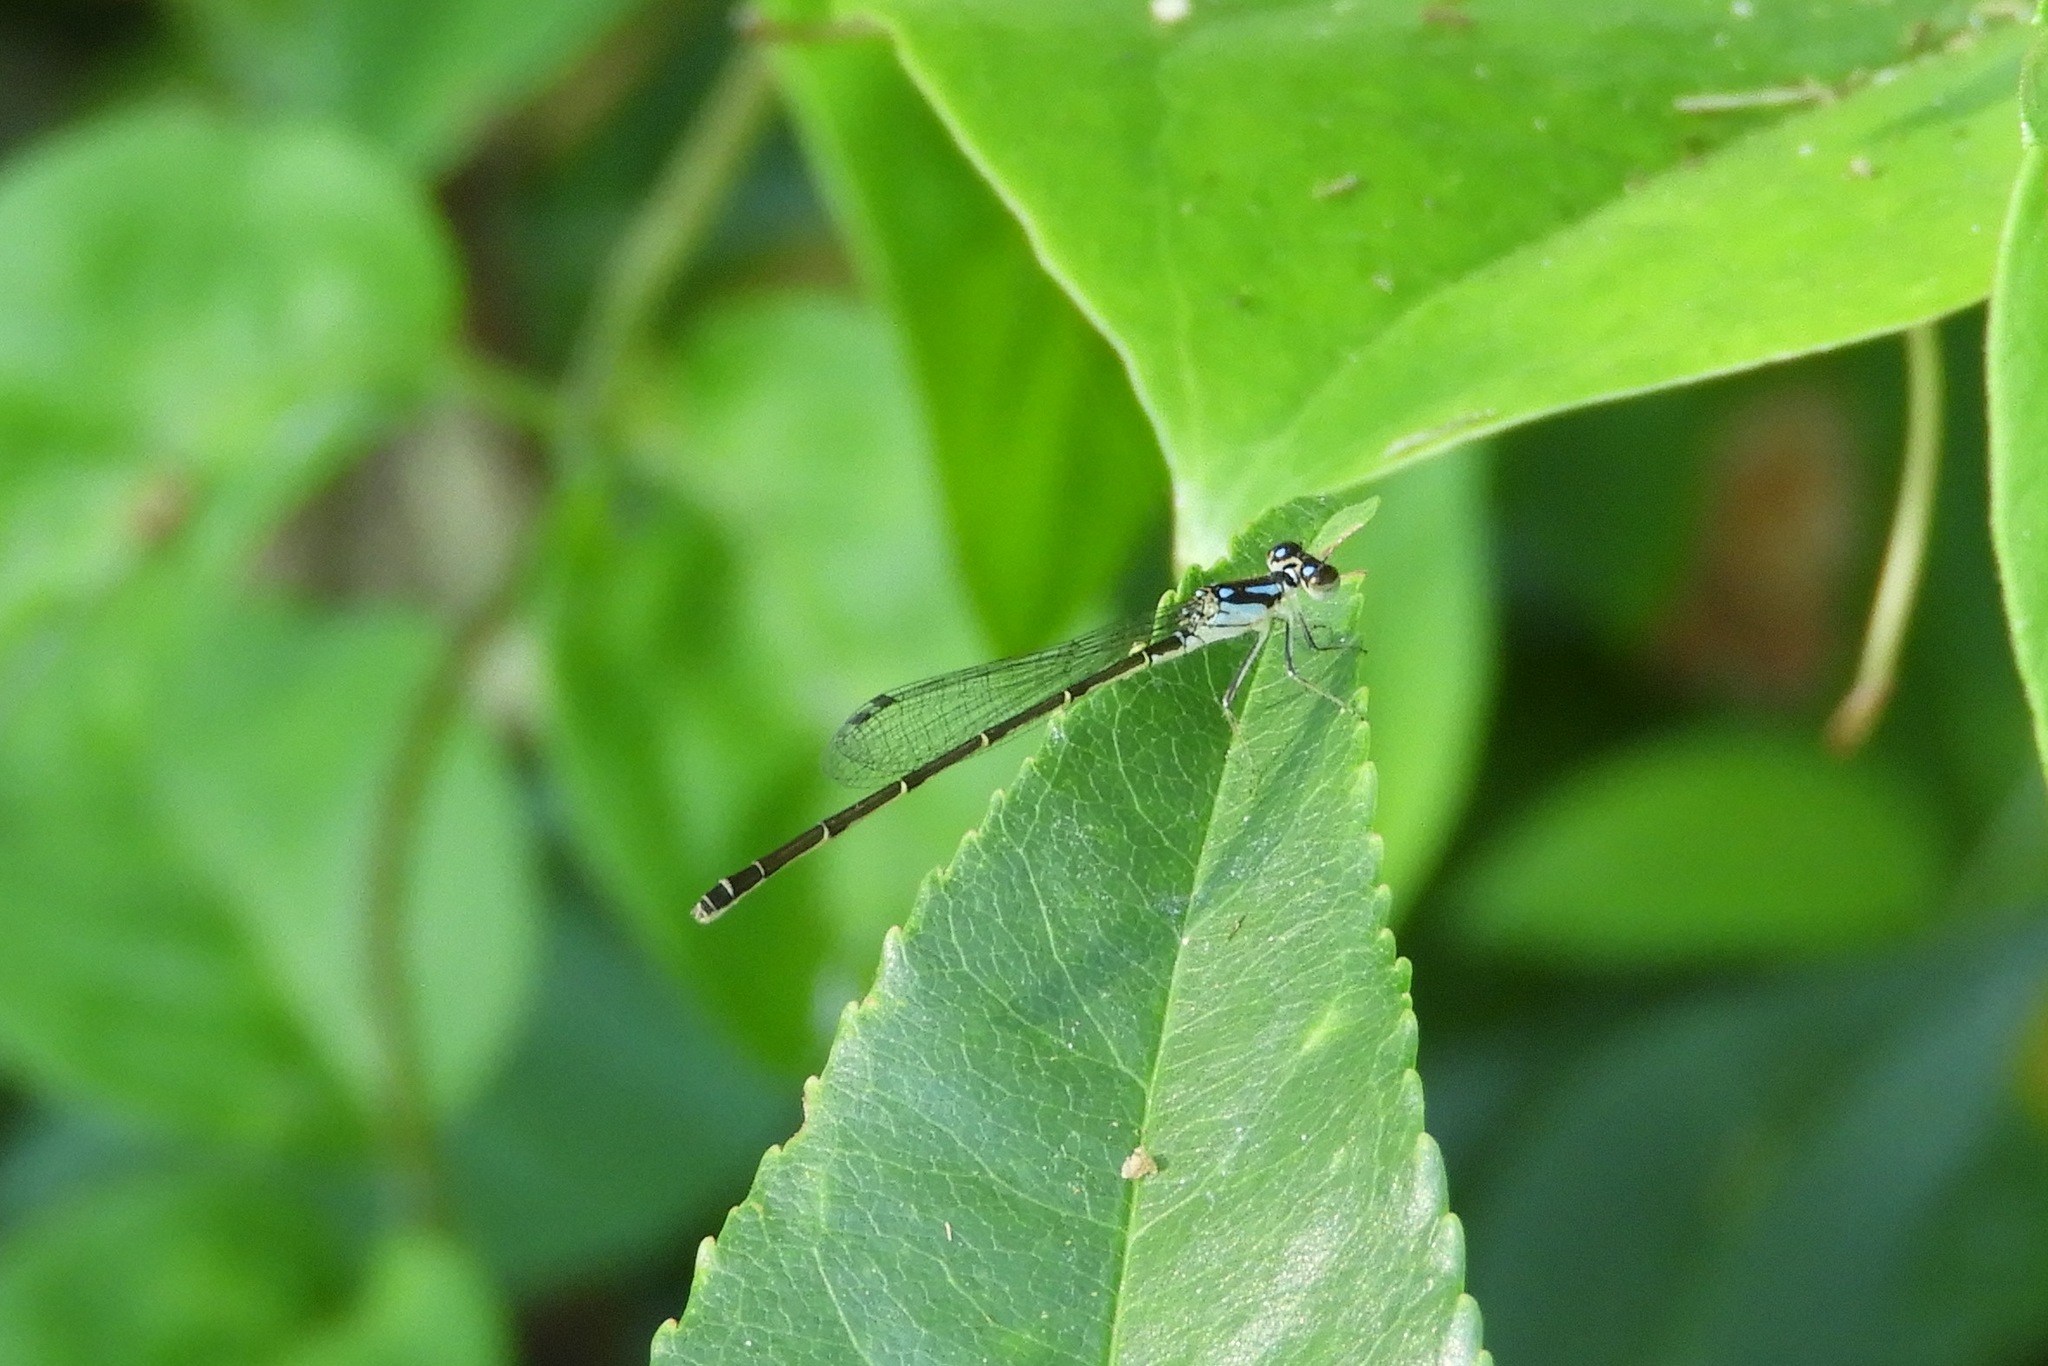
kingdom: Animalia
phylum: Arthropoda
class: Insecta
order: Odonata
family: Coenagrionidae
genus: Ischnura
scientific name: Ischnura posita
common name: Fragile forktail
